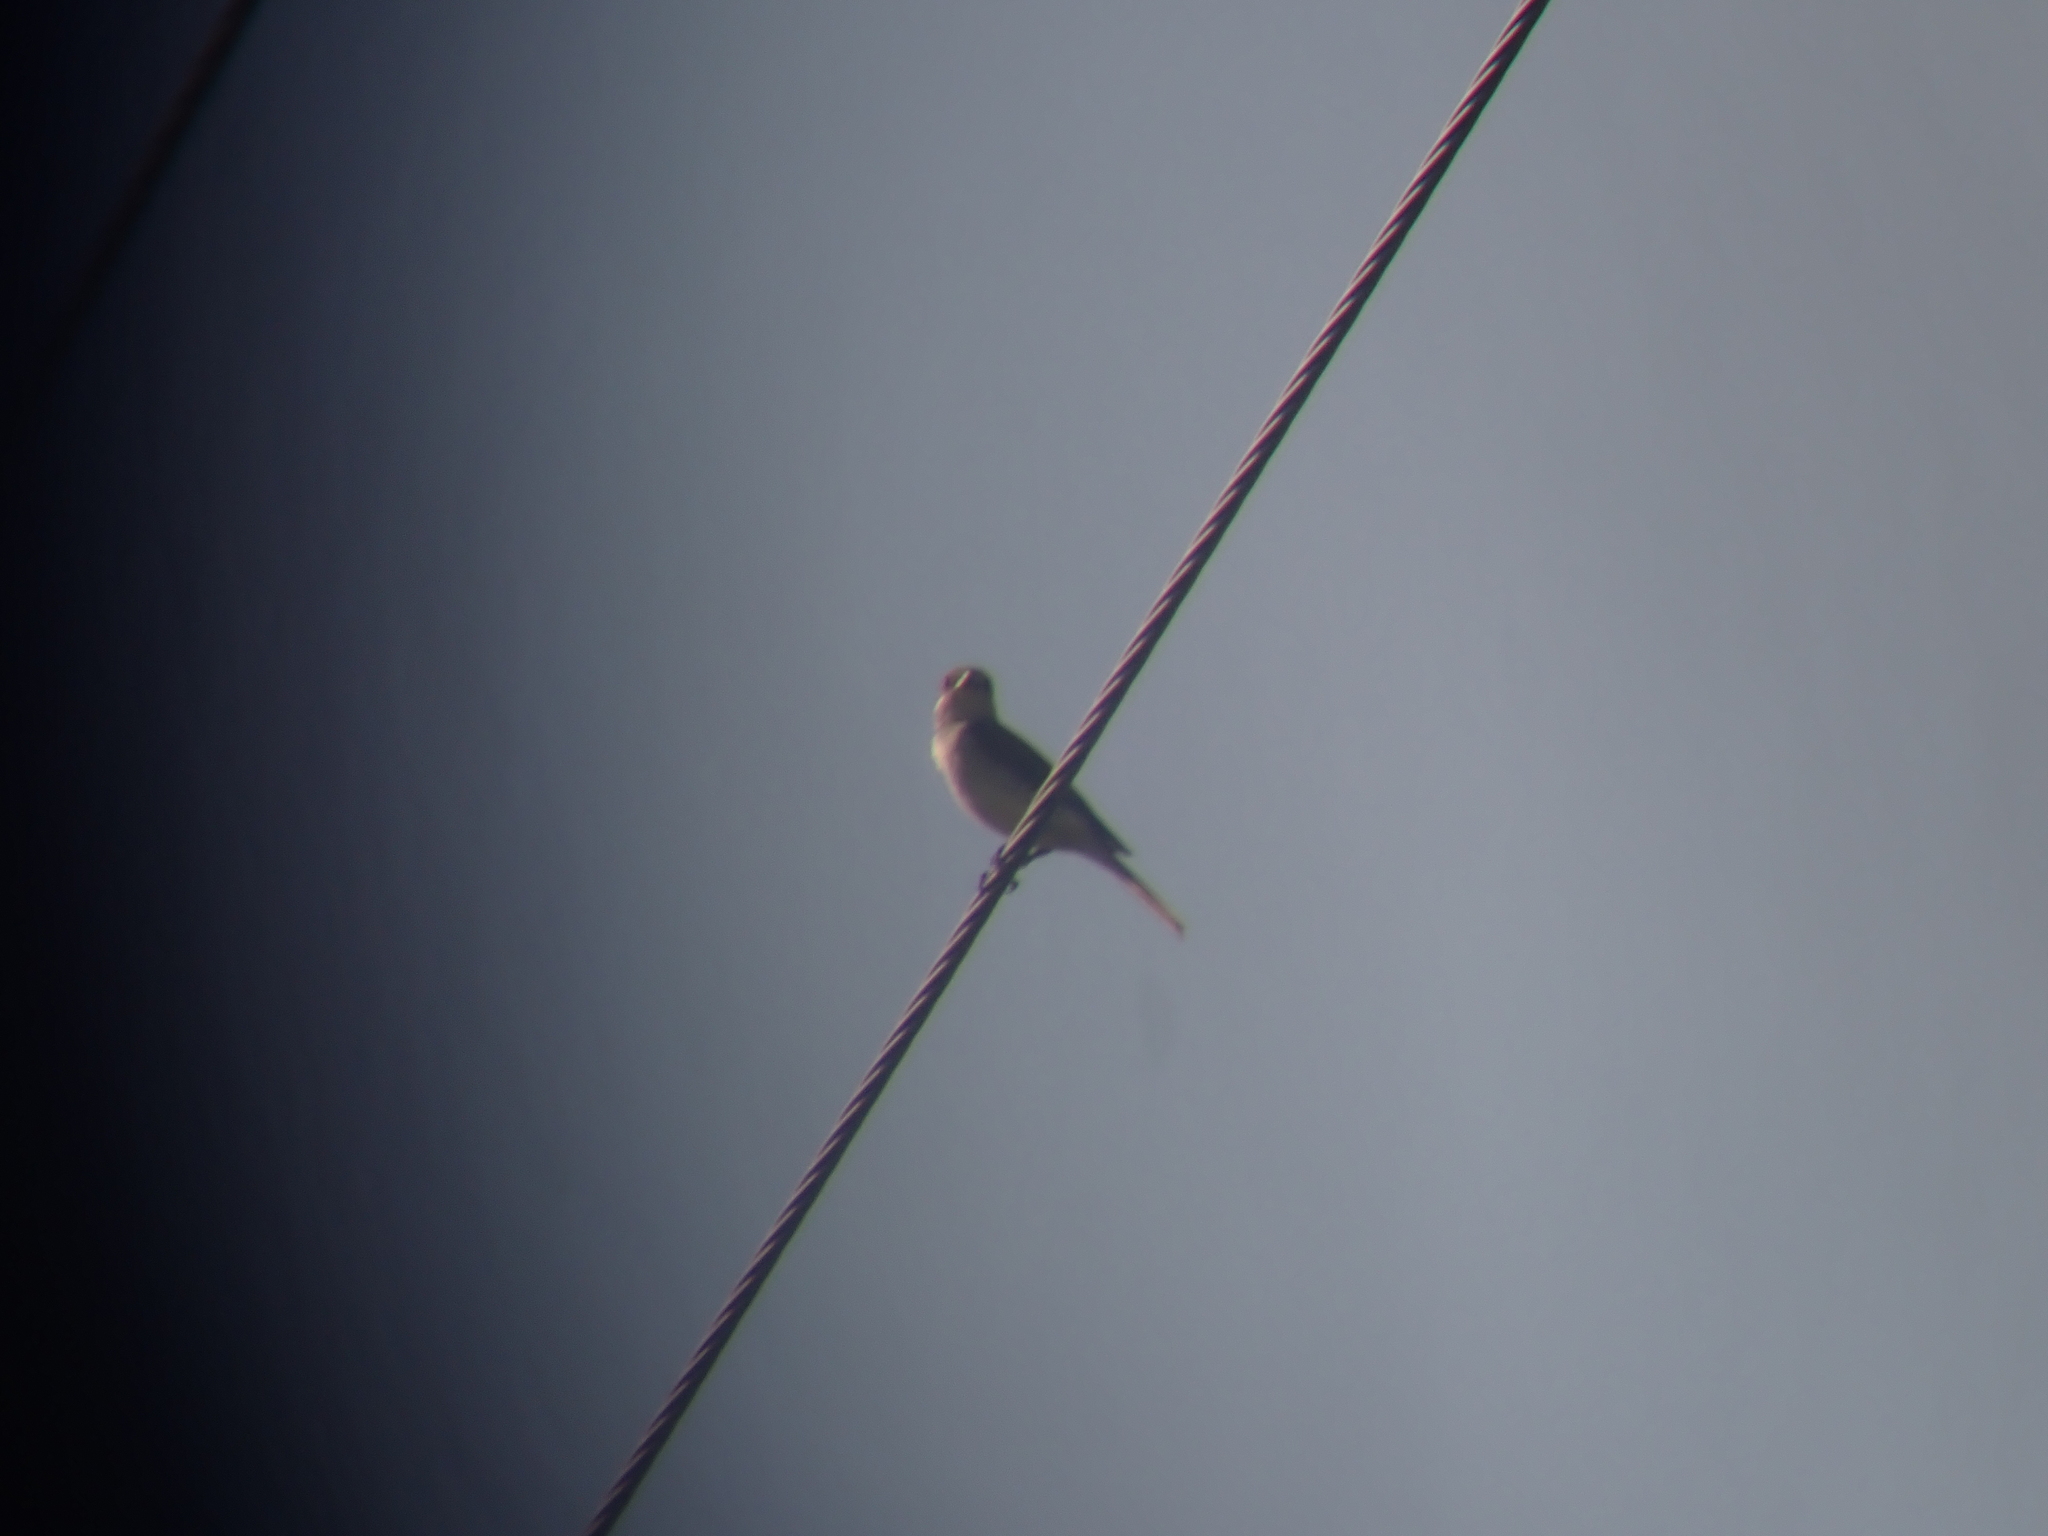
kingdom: Animalia
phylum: Chordata
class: Aves
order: Passeriformes
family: Laniidae
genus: Lanius
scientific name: Lanius collurio
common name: Red-backed shrike
